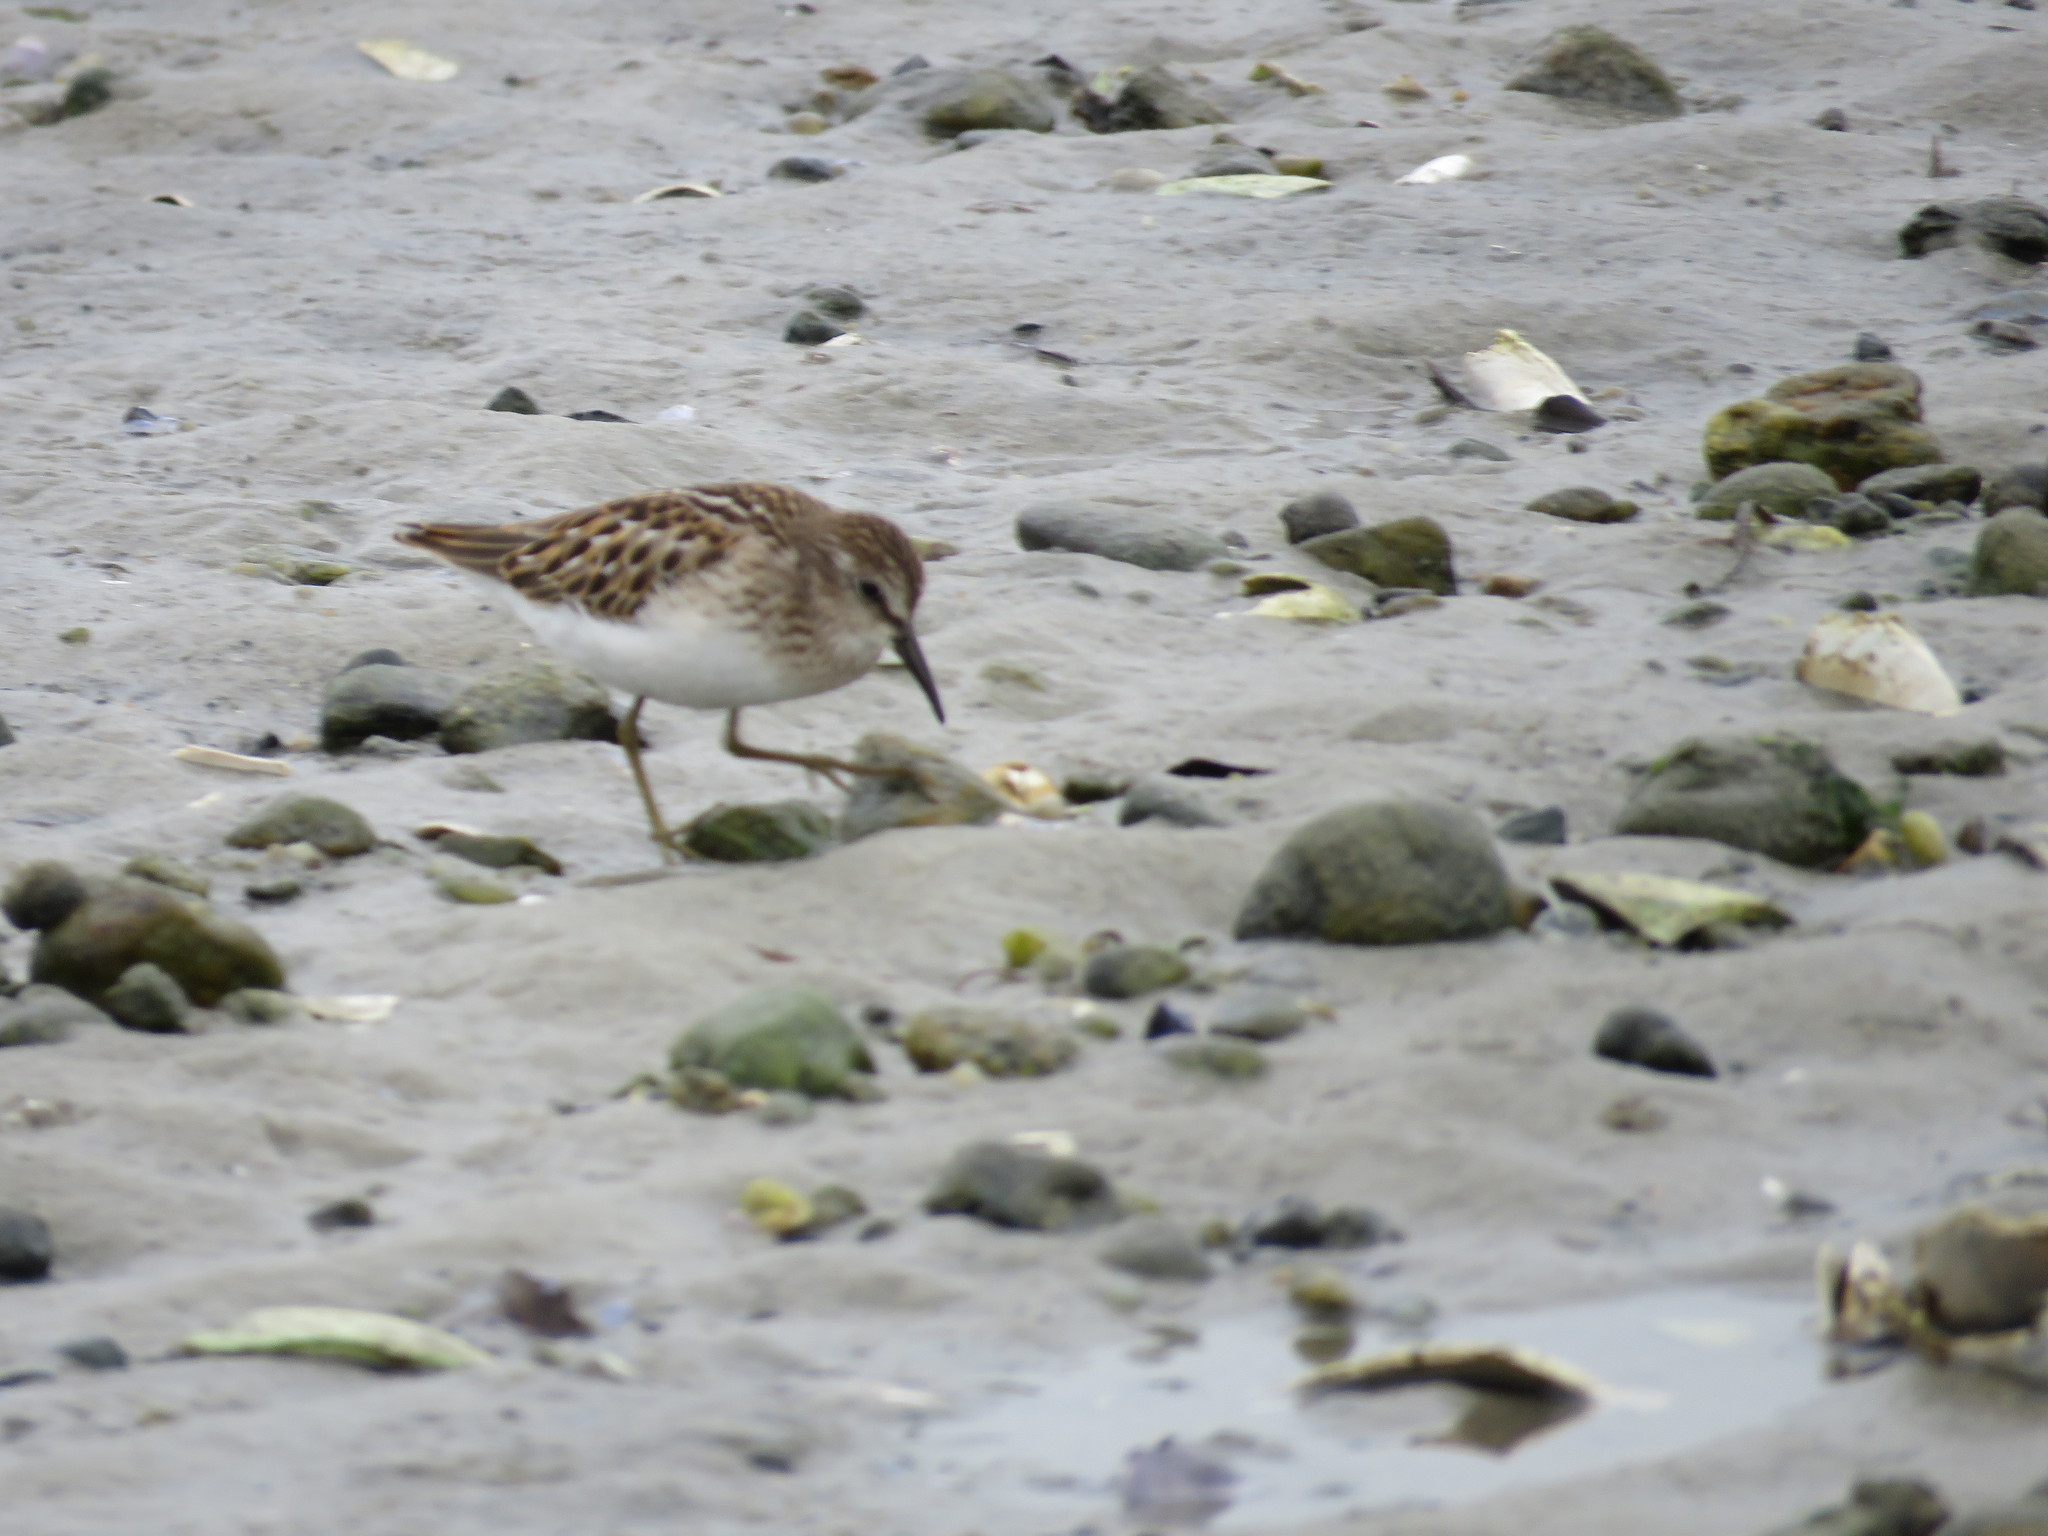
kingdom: Animalia
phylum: Chordata
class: Aves
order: Charadriiformes
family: Scolopacidae
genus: Calidris
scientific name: Calidris minutilla
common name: Least sandpiper
